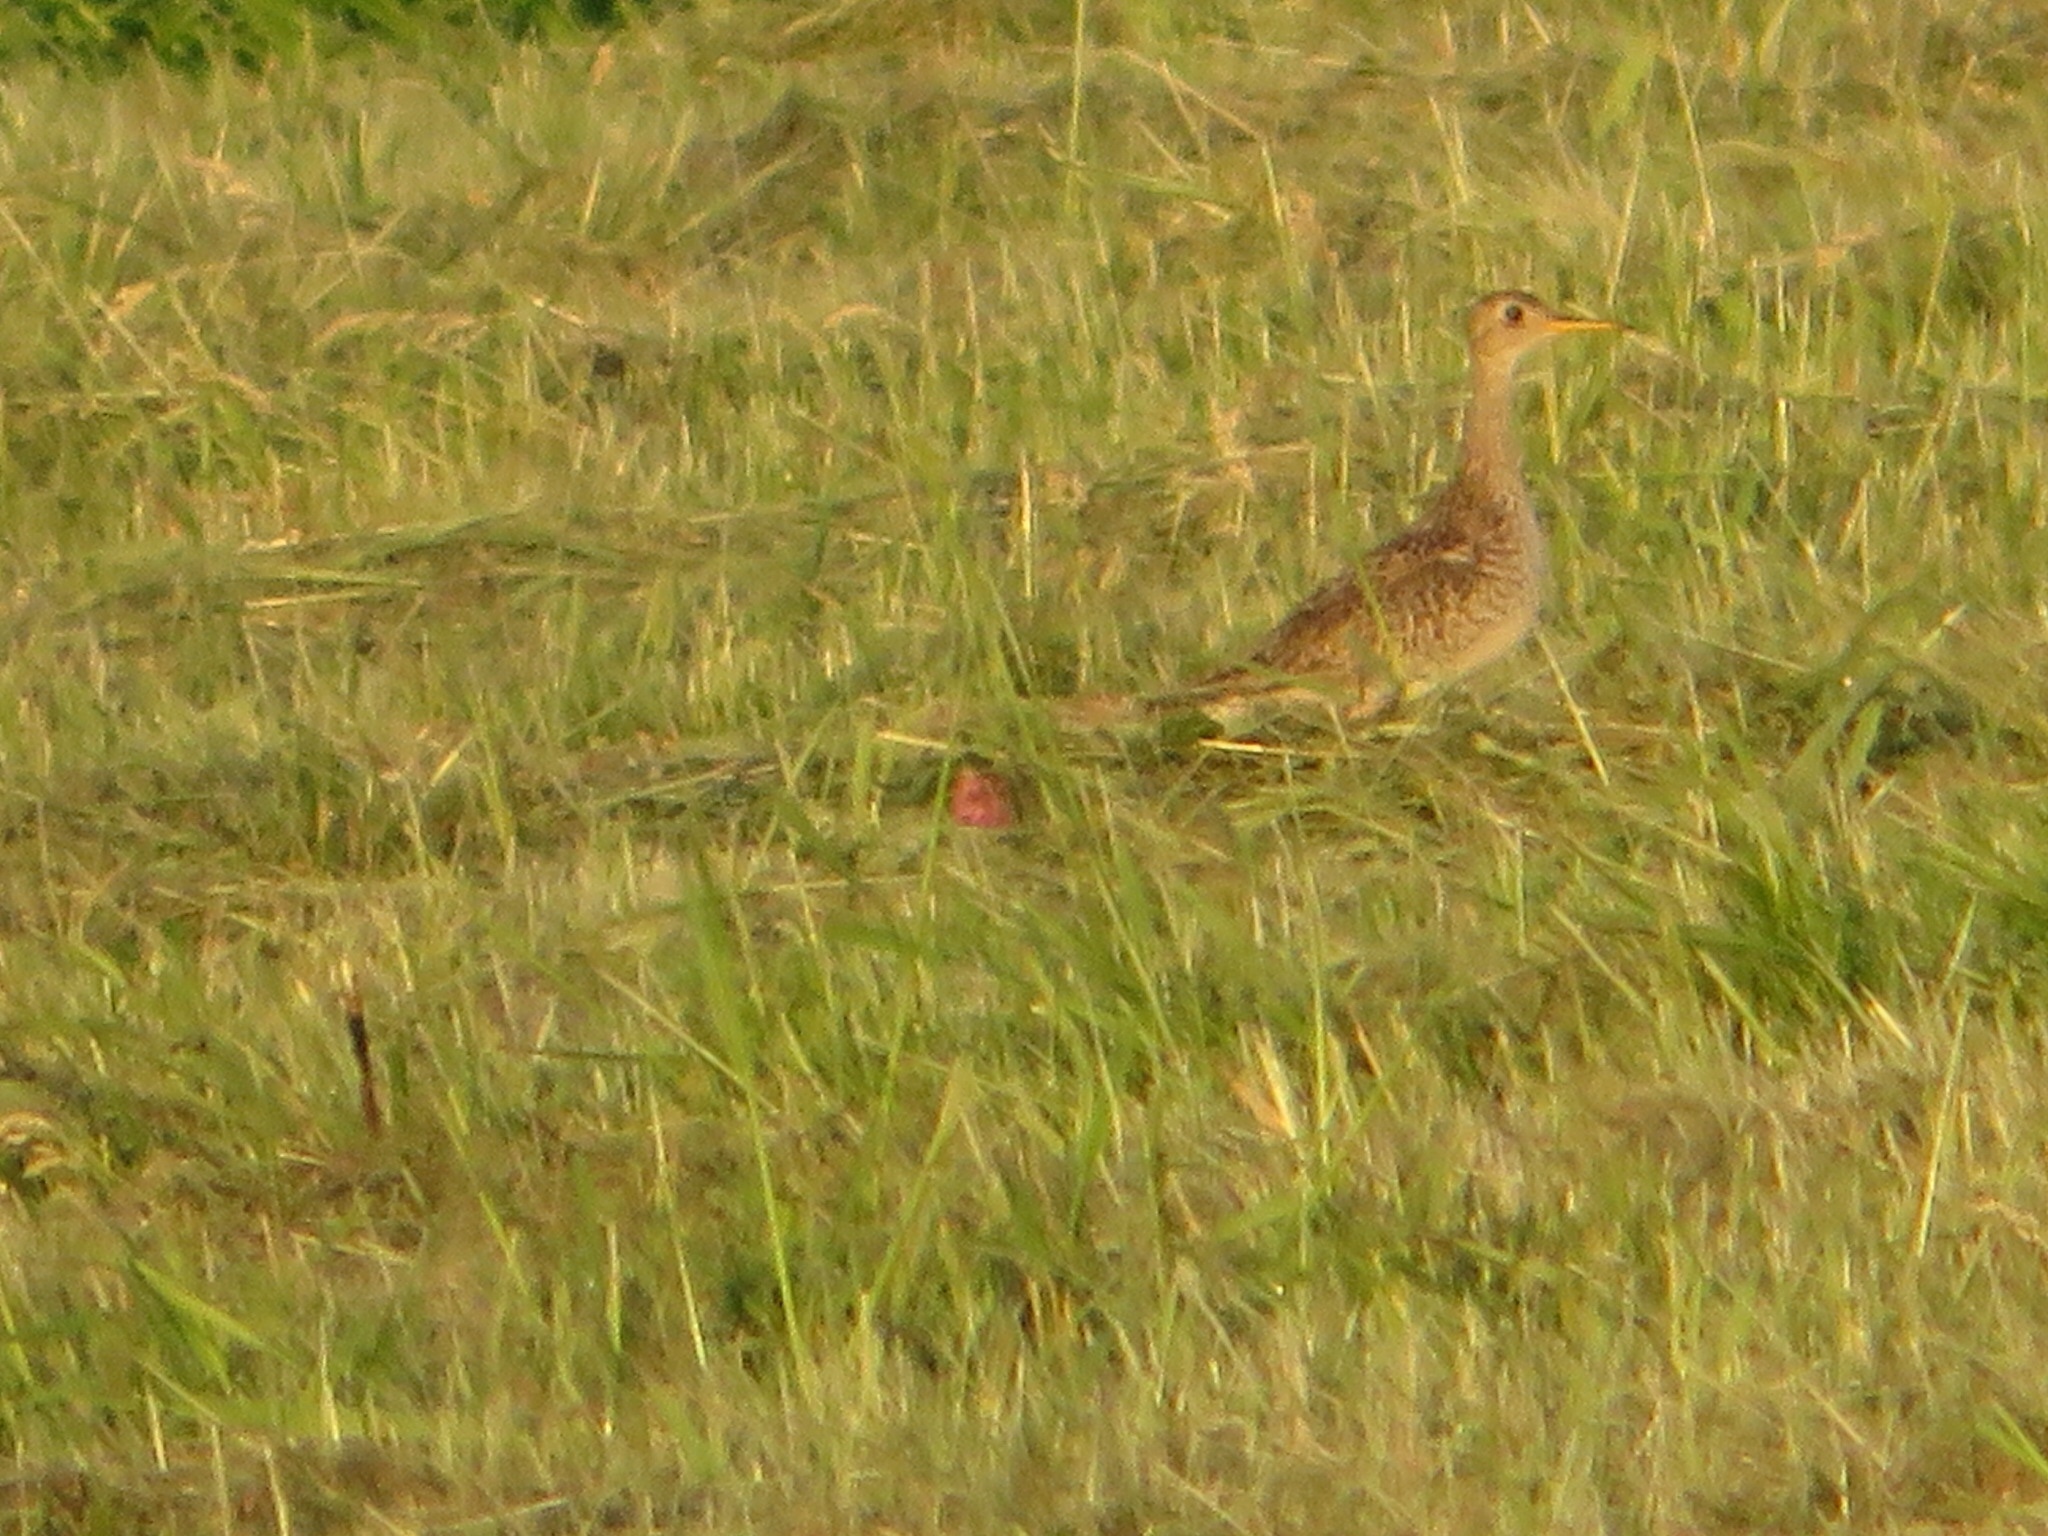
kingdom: Animalia
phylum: Chordata
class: Aves
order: Charadriiformes
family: Scolopacidae
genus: Bartramia
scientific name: Bartramia longicauda
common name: Upland sandpiper
